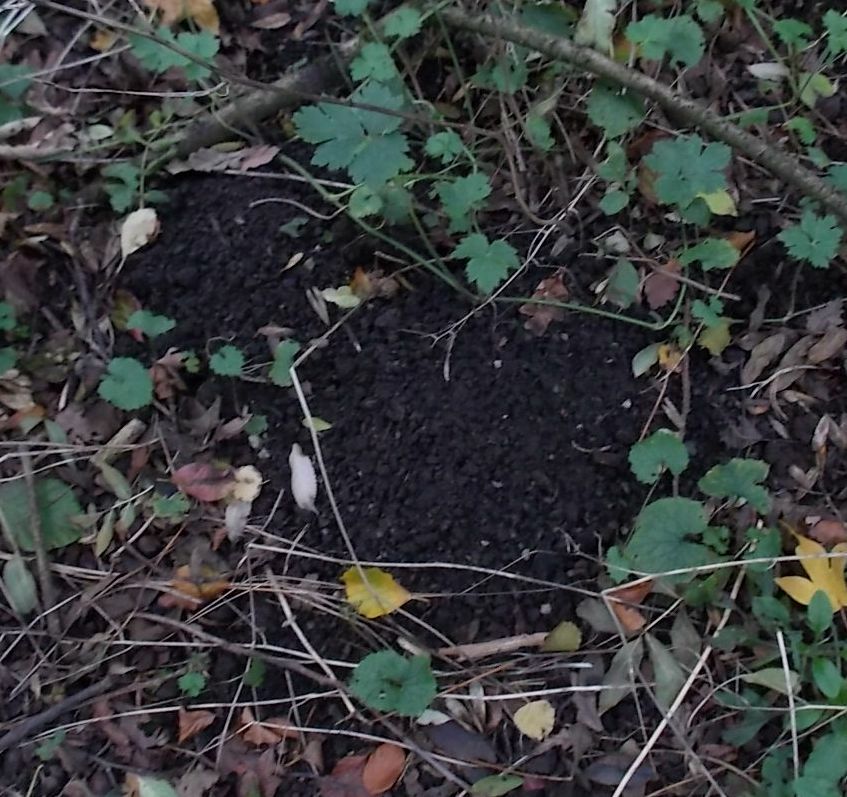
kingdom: Animalia
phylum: Chordata
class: Mammalia
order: Soricomorpha
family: Talpidae
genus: Talpa
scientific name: Talpa europaea
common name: European mole
